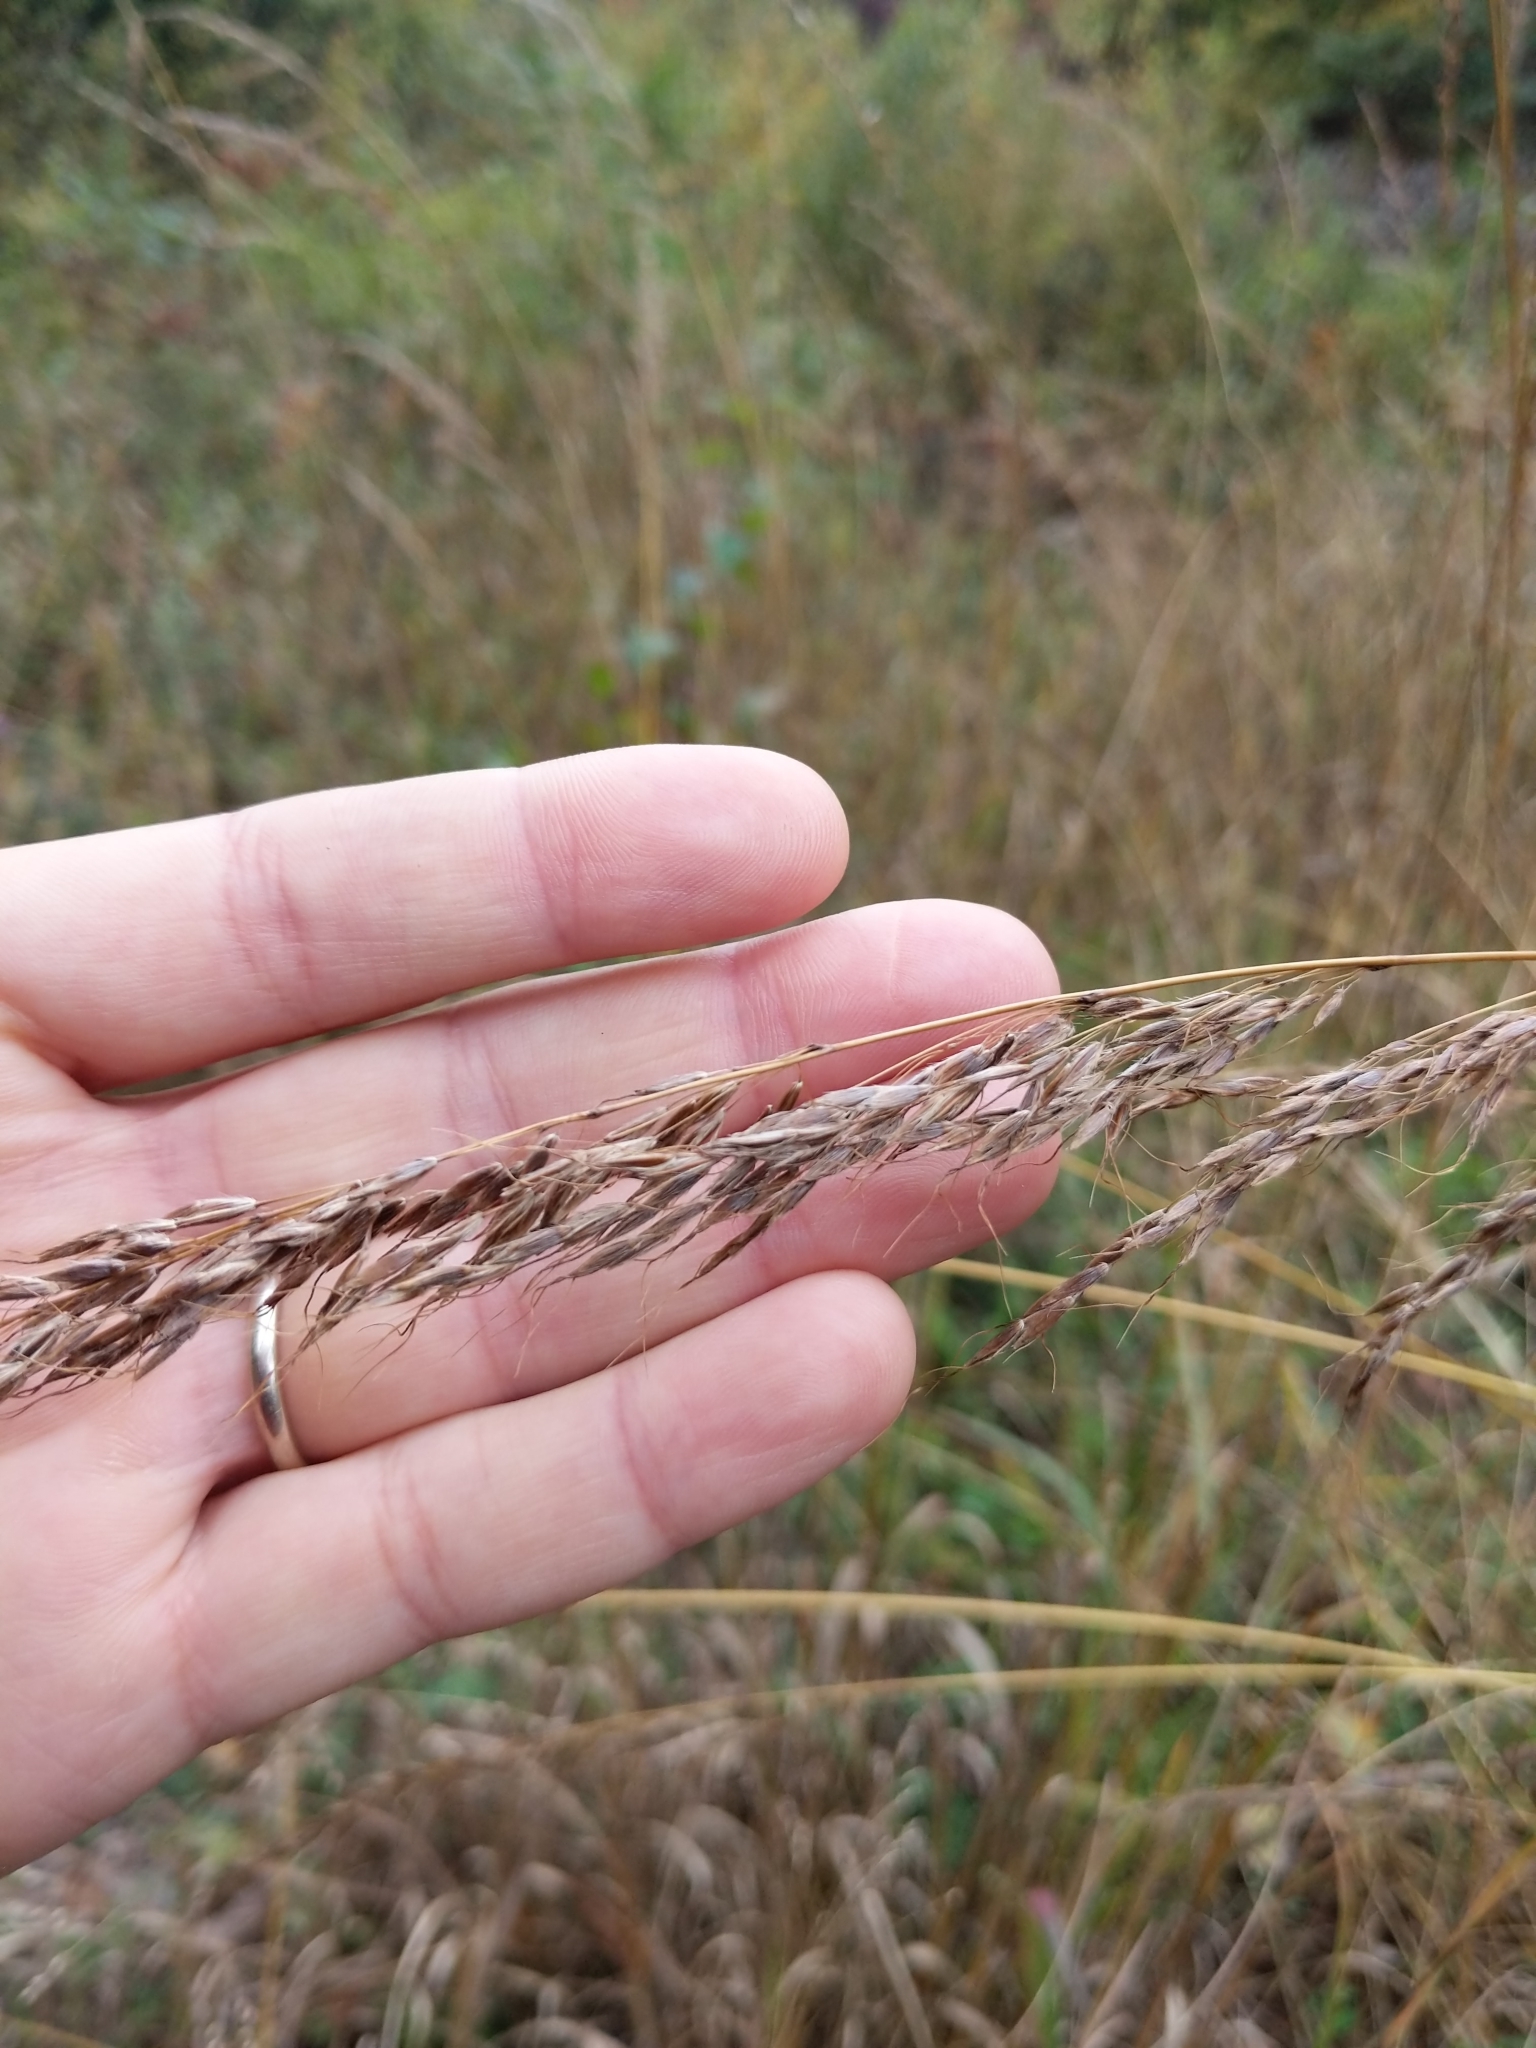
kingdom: Plantae
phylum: Tracheophyta
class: Liliopsida
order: Poales
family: Poaceae
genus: Sorghastrum
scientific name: Sorghastrum nutans
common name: Indian grass
